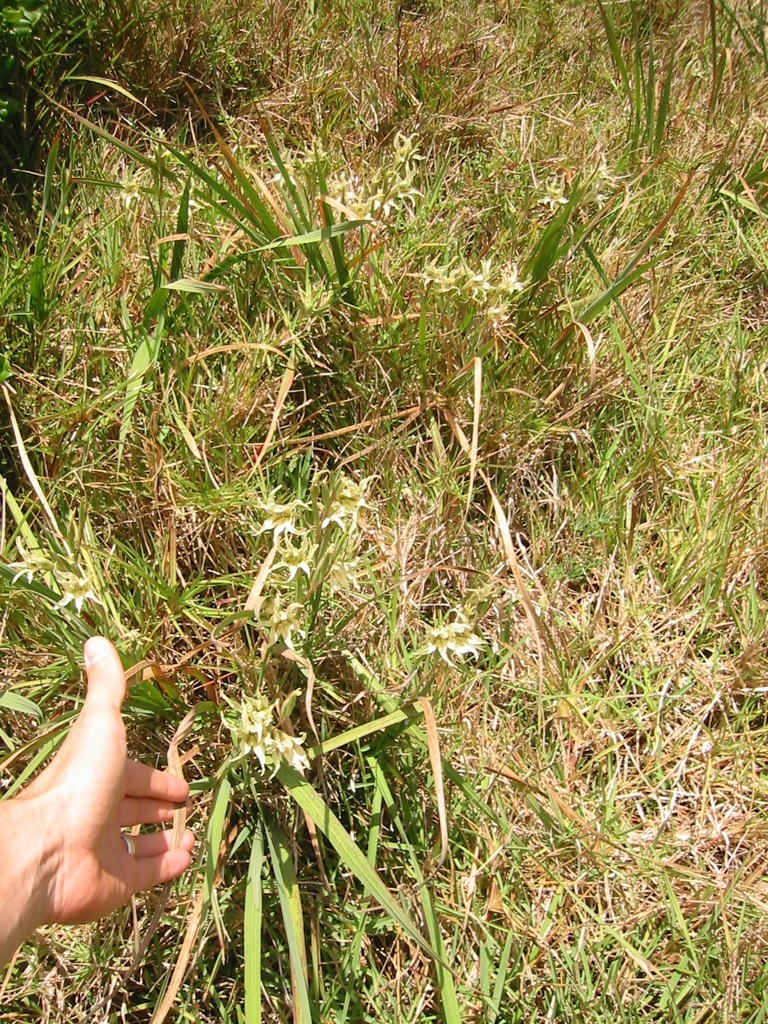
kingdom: Plantae
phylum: Tracheophyta
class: Liliopsida
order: Asparagales
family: Iridaceae
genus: Gladiolus
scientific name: Gladiolus undulatus
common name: Large painted-lady
